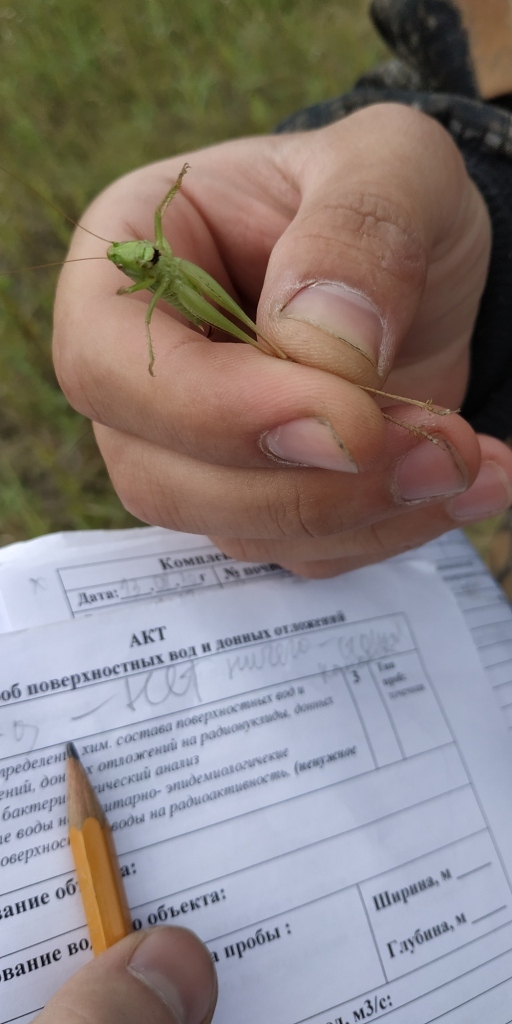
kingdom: Animalia
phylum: Arthropoda
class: Insecta
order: Orthoptera
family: Tettigoniidae
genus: Bicolorana
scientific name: Bicolorana bicolor
